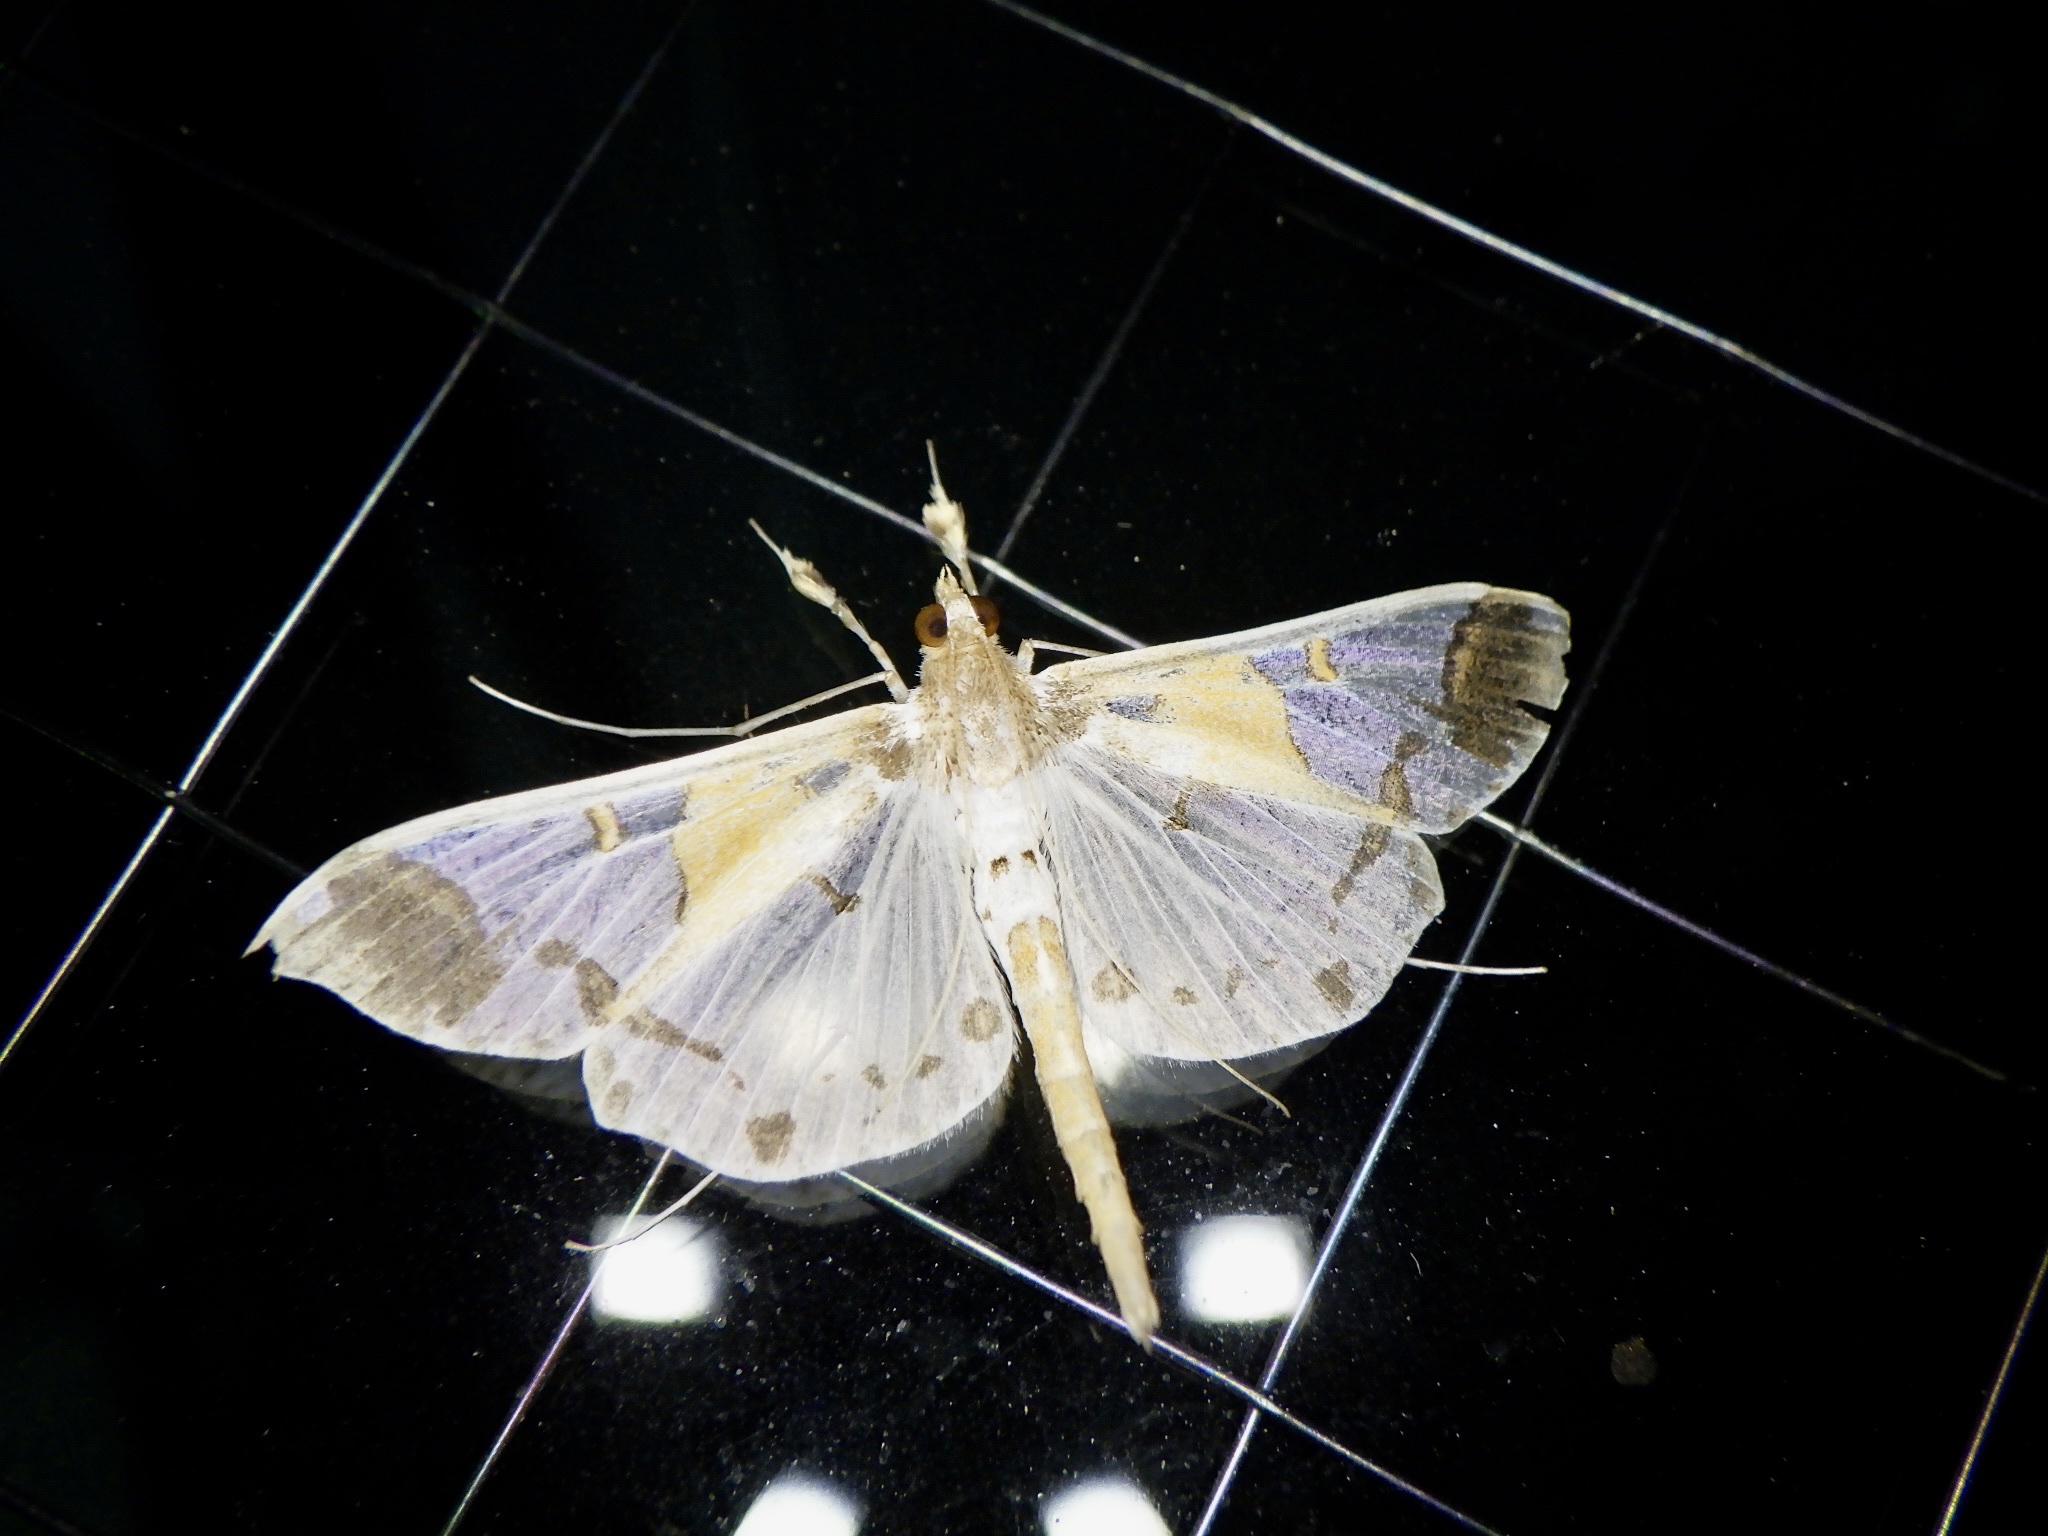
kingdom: Animalia
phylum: Arthropoda
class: Insecta
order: Lepidoptera
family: Crambidae
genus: Polythlipta
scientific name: Polythlipta liquidalis
